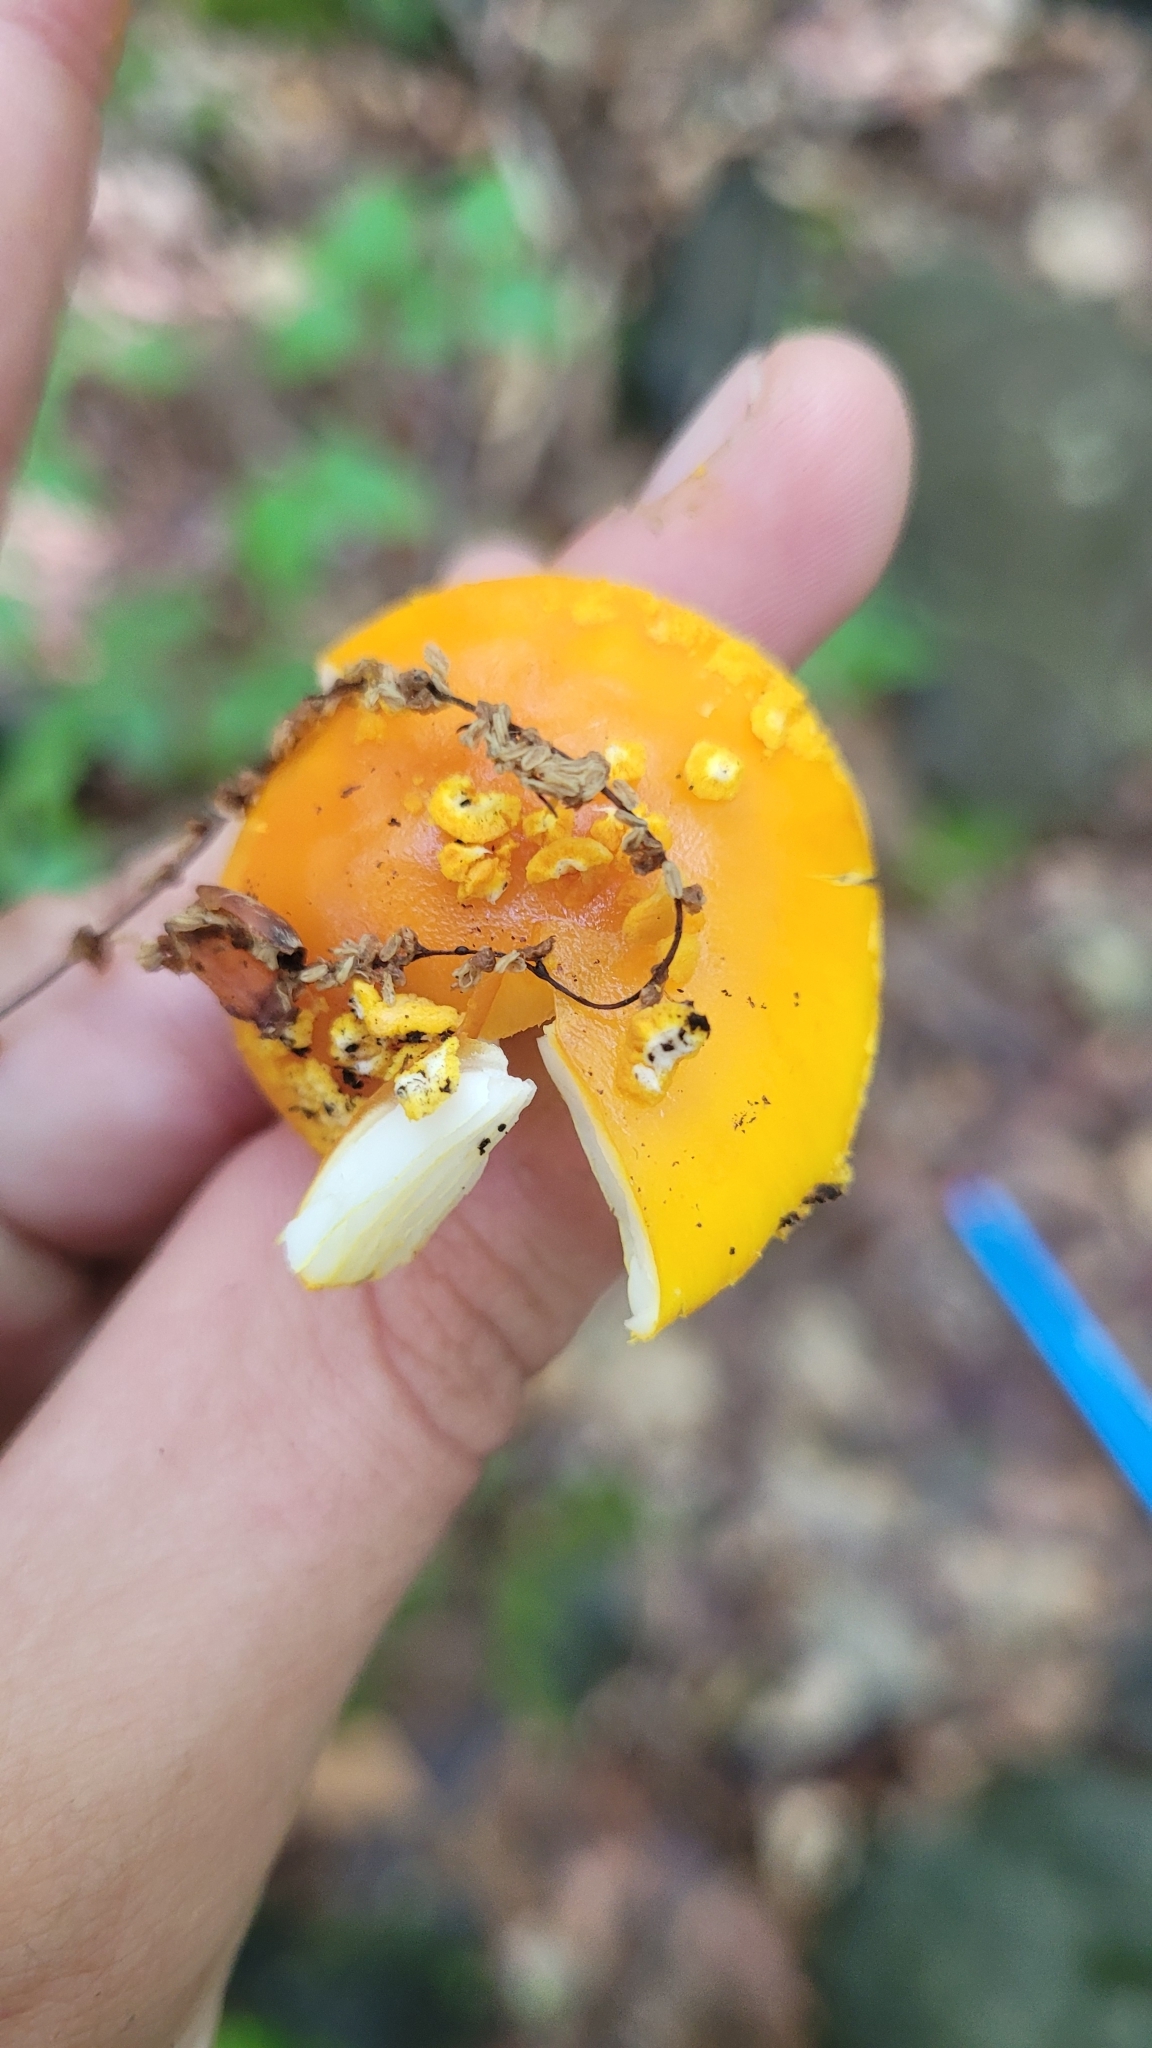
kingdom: Fungi
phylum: Basidiomycota
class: Agaricomycetes
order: Agaricales
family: Amanitaceae
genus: Amanita
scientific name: Amanita flavoconia
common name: Yellow patches
